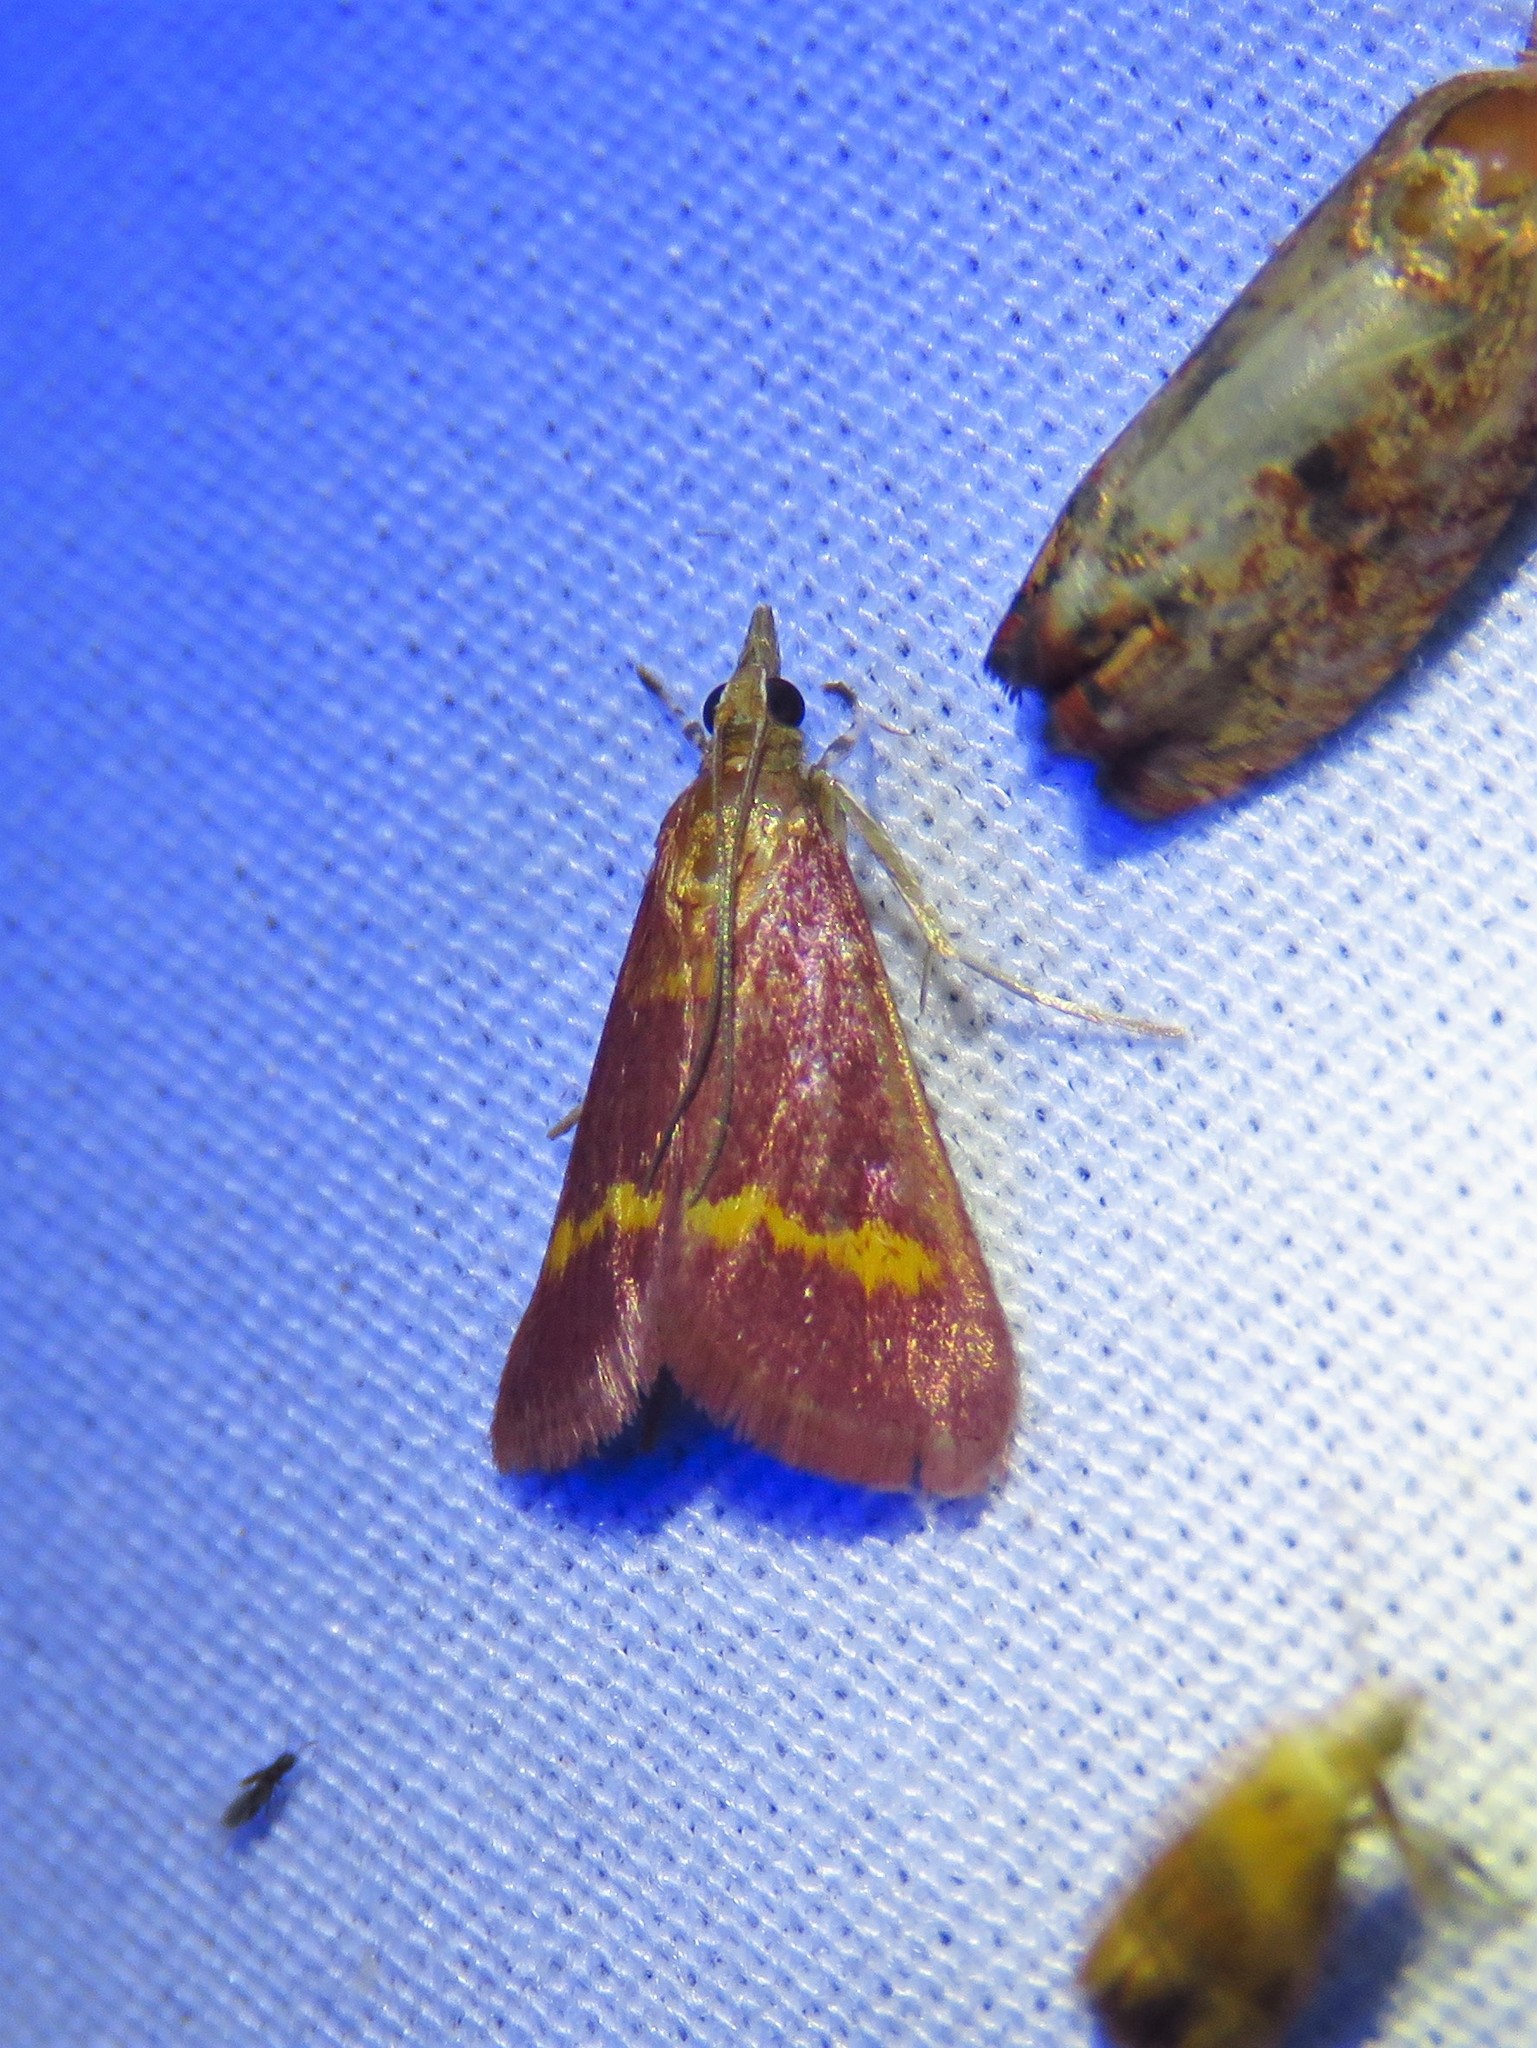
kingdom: Animalia
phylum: Arthropoda
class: Insecta
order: Lepidoptera
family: Crambidae
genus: Pyrausta
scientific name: Pyrausta pseuderosnealis
